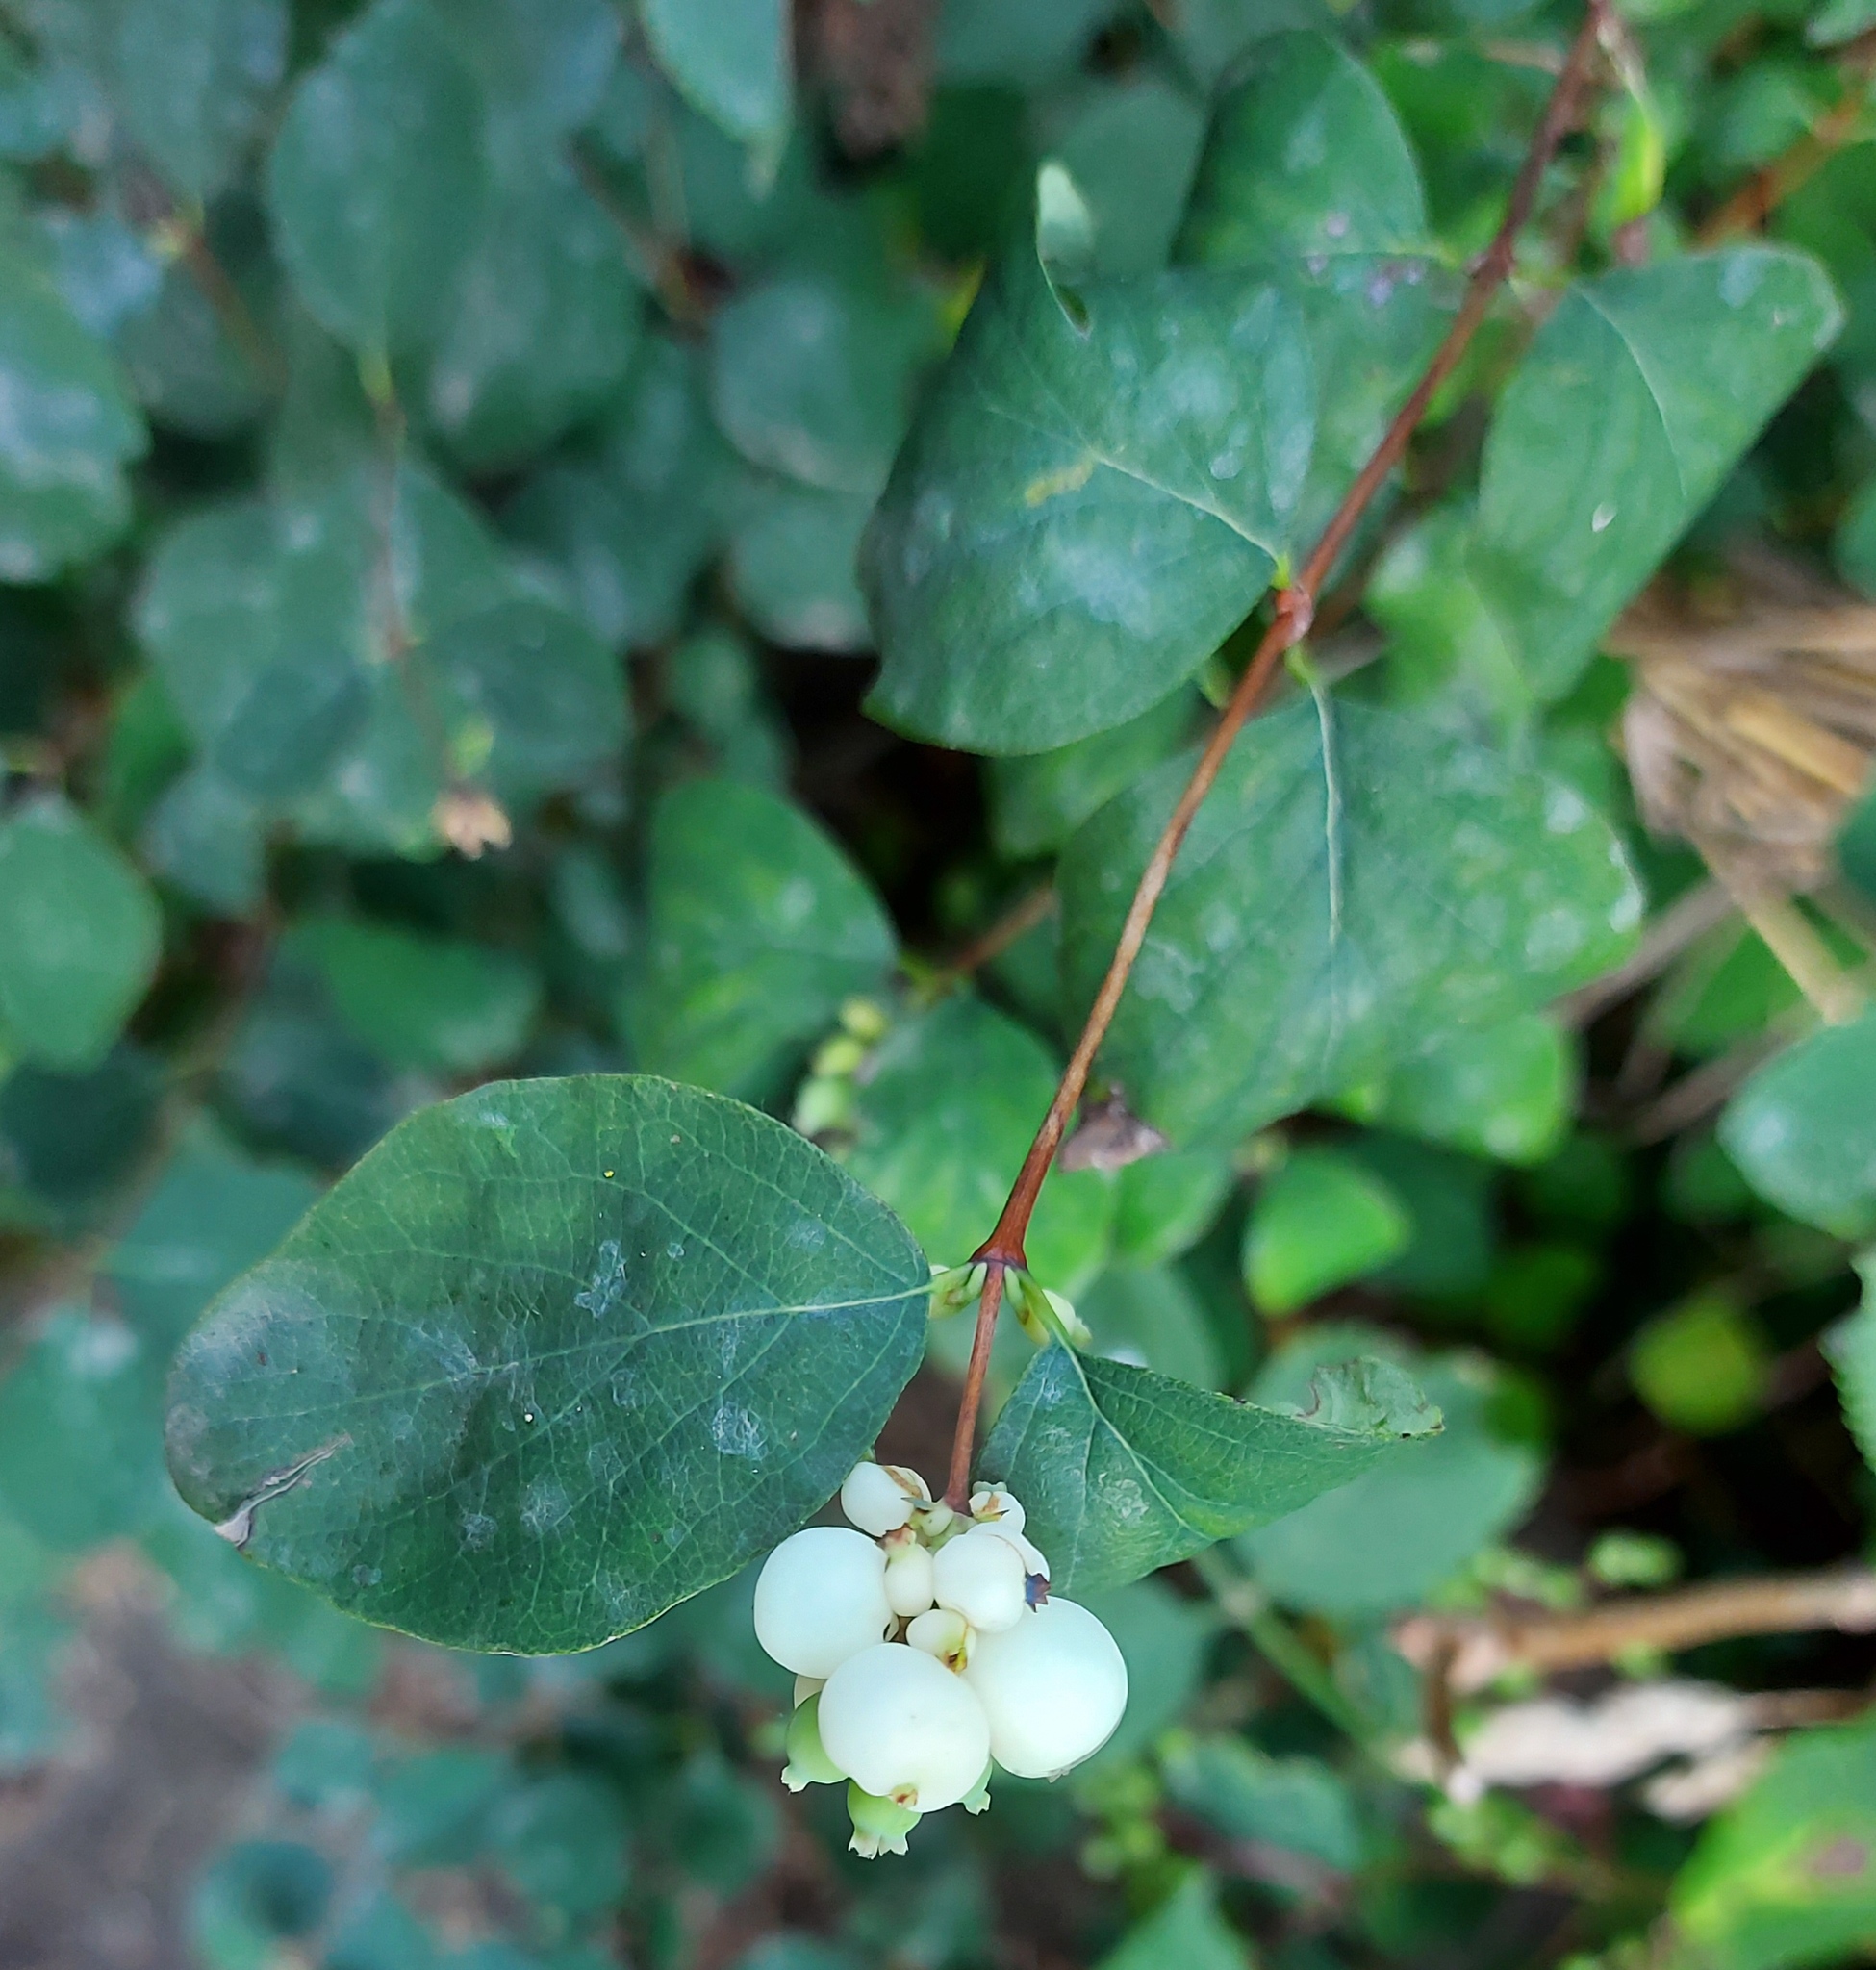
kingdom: Plantae
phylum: Tracheophyta
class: Magnoliopsida
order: Dipsacales
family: Caprifoliaceae
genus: Symphoricarpos
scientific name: Symphoricarpos albus
